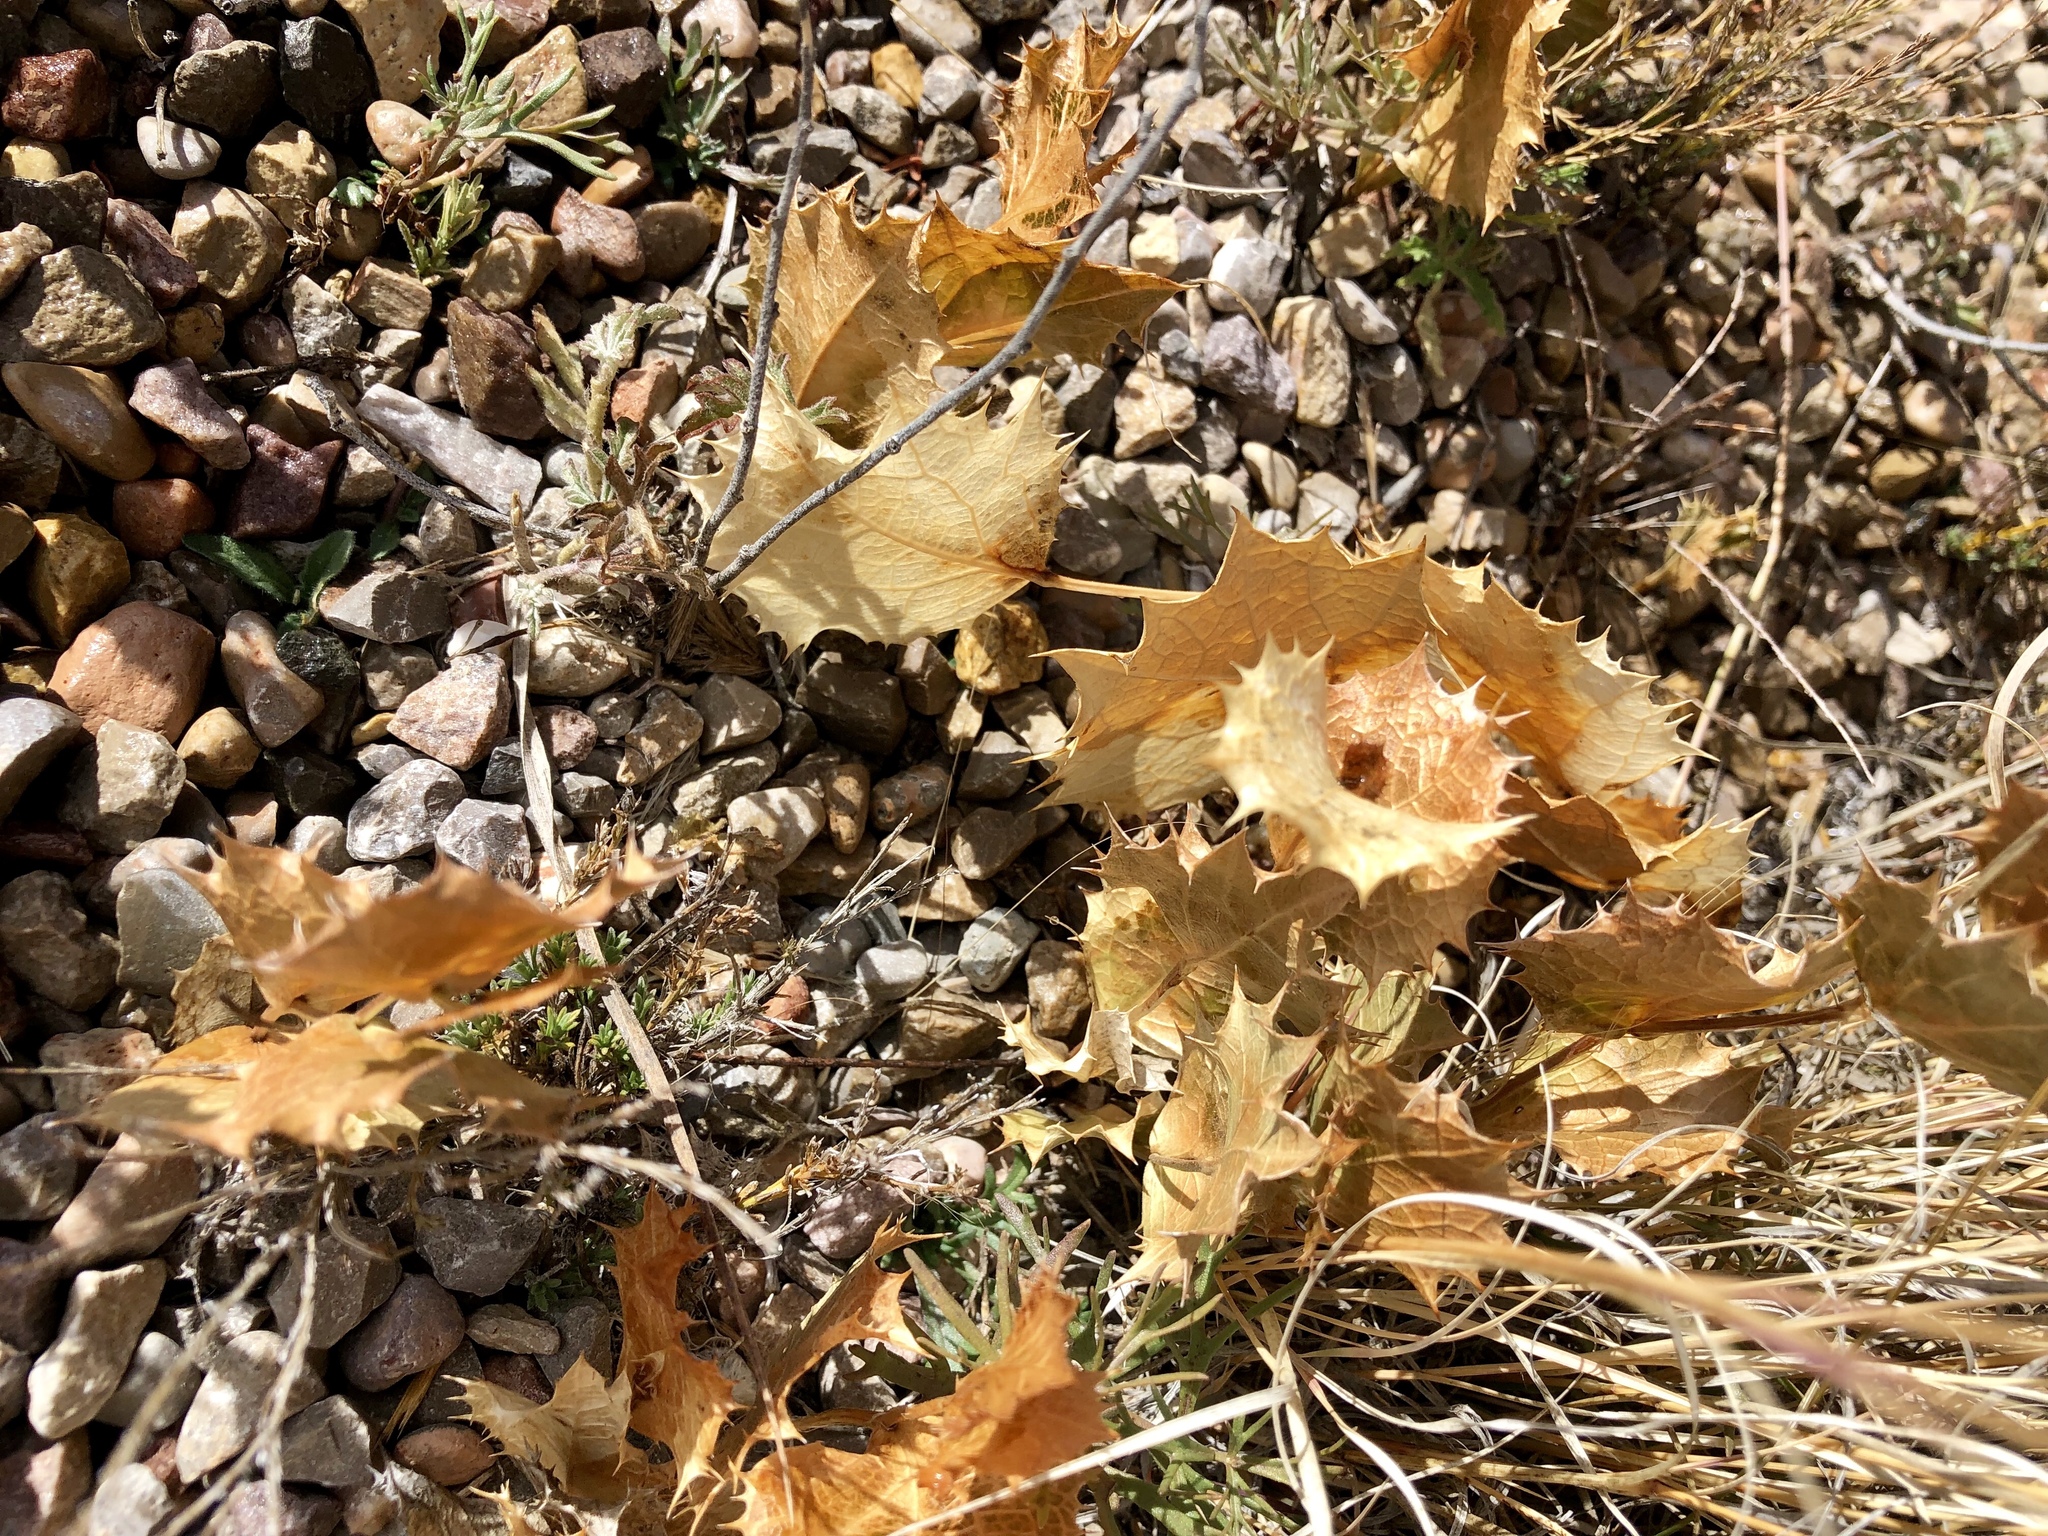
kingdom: Plantae
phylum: Tracheophyta
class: Magnoliopsida
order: Asterales
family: Asteraceae
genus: Acourtia
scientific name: Acourtia nana
